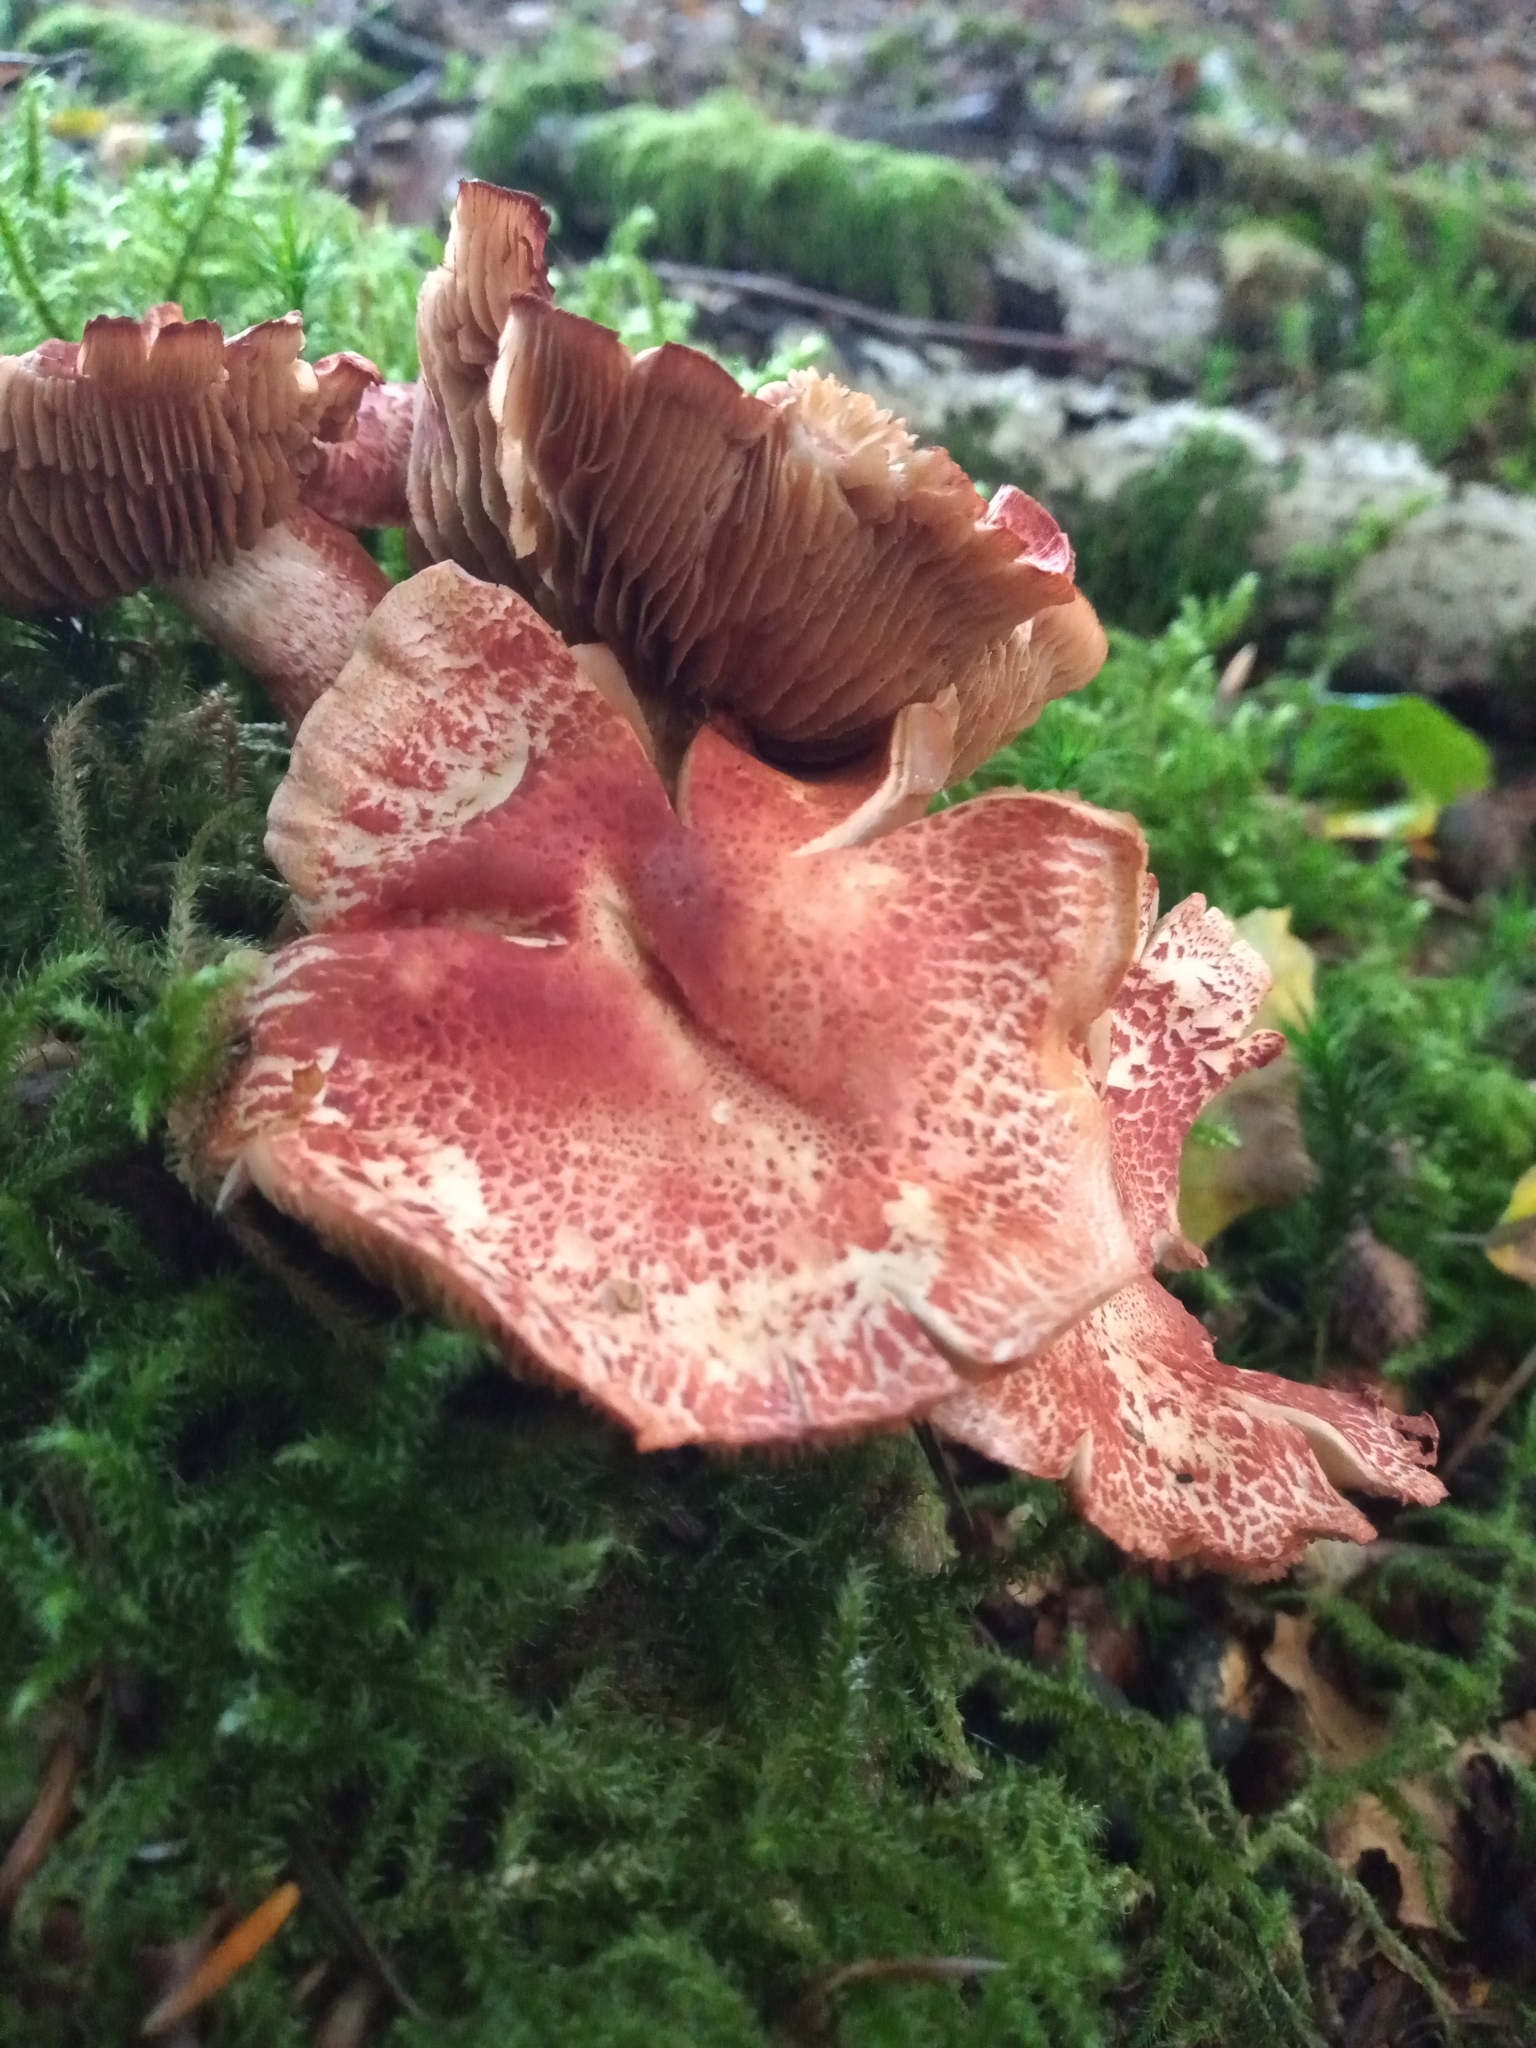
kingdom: Fungi
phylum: Basidiomycota
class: Agaricomycetes
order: Agaricales
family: Cortinariaceae
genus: Cortinarius
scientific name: Cortinarius bolaris
